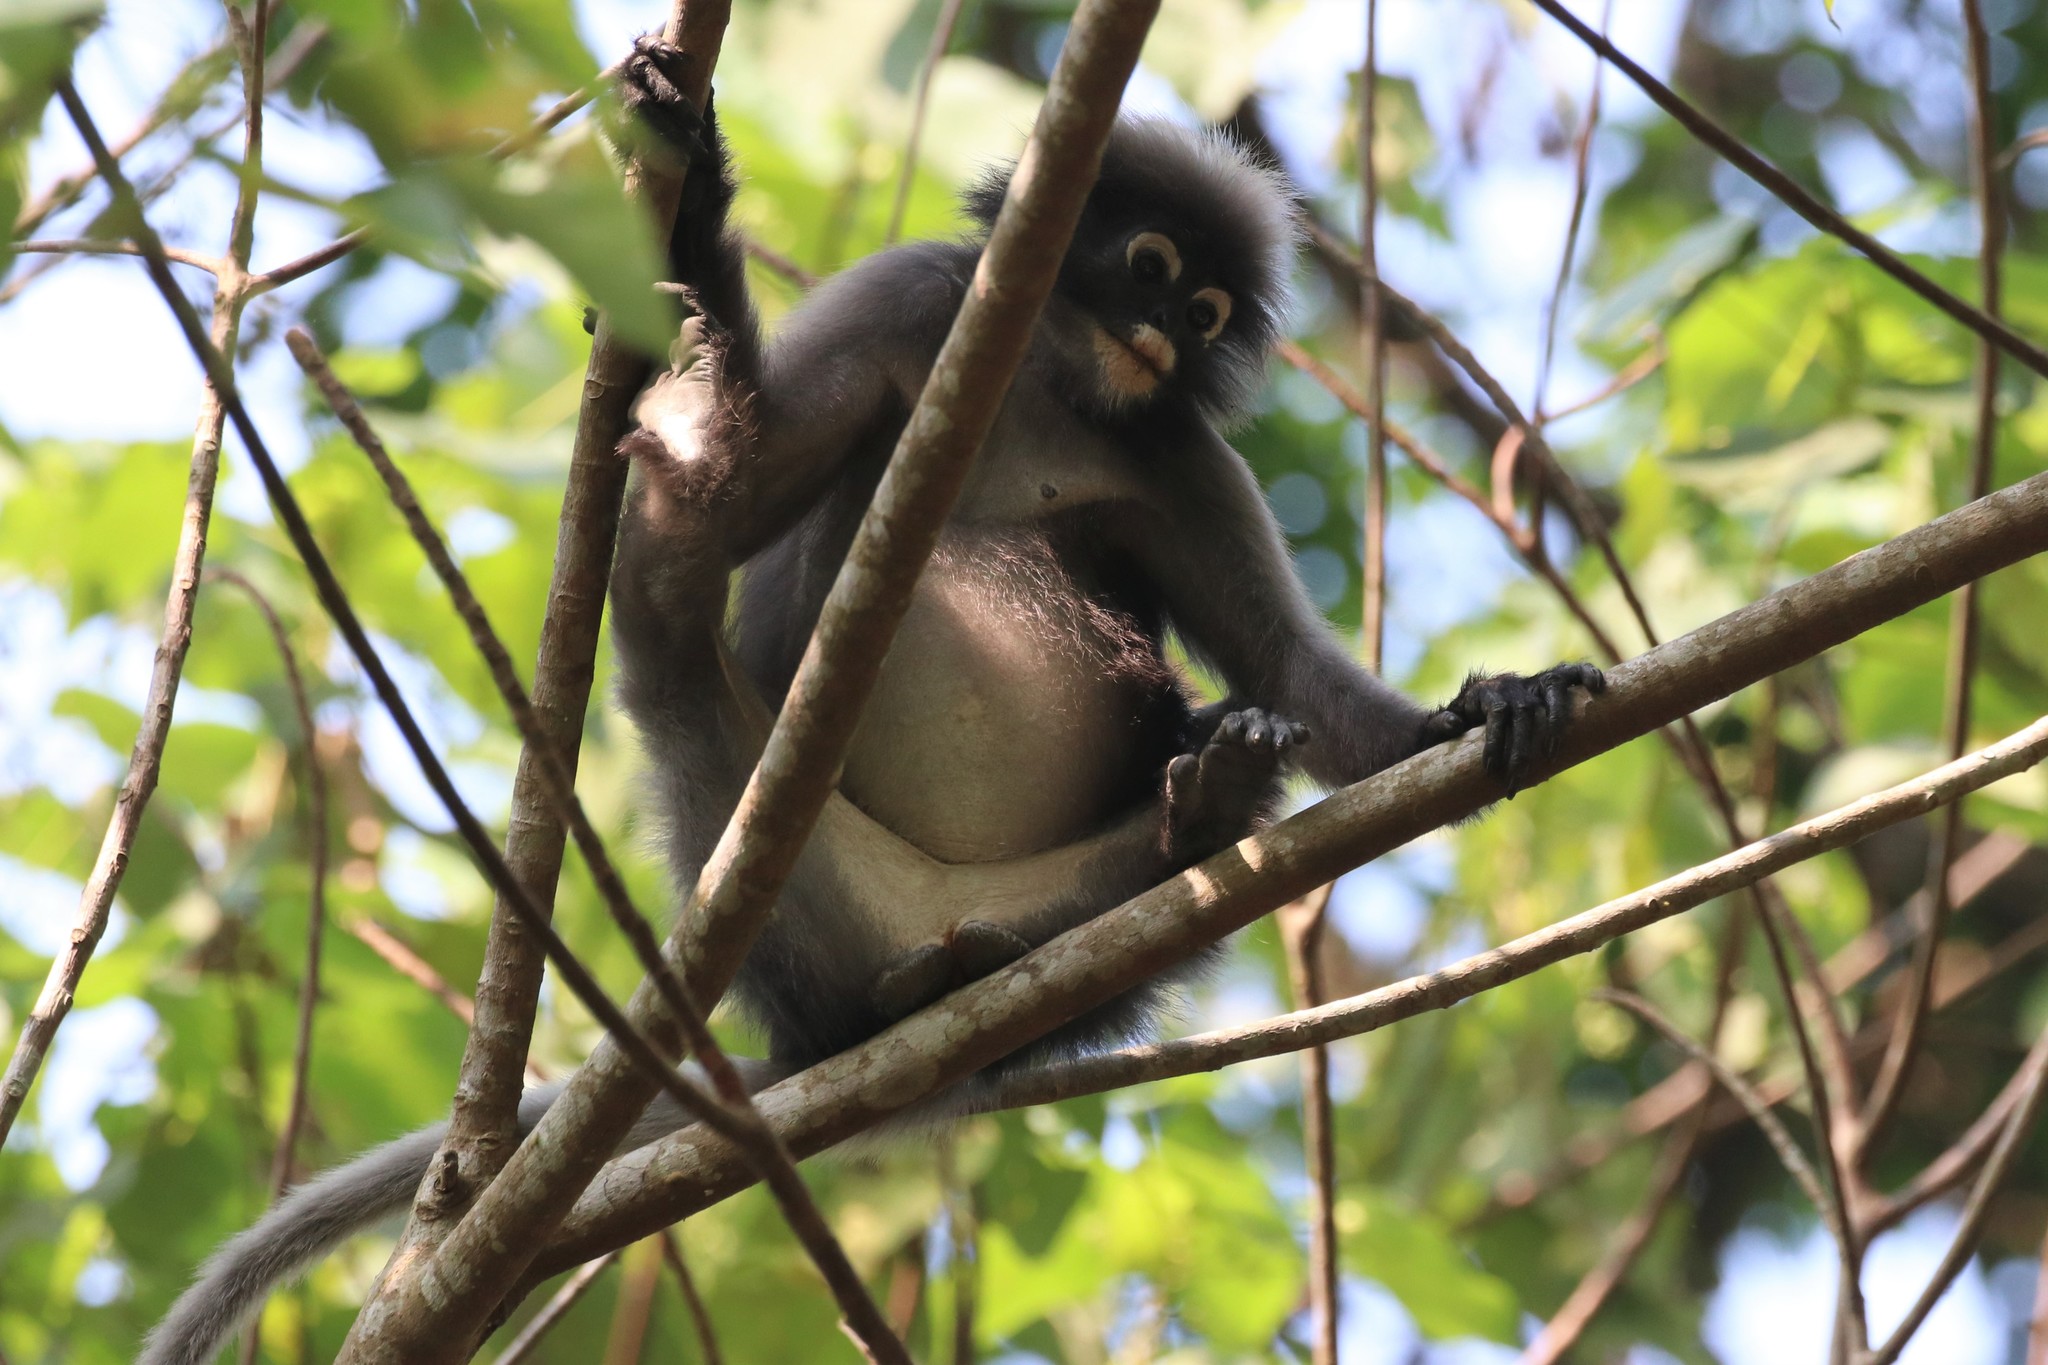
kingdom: Animalia
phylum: Chordata
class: Mammalia
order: Primates
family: Cercopithecidae
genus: Trachypithecus
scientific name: Trachypithecus obscurus
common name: Dusky leaf-monkey
